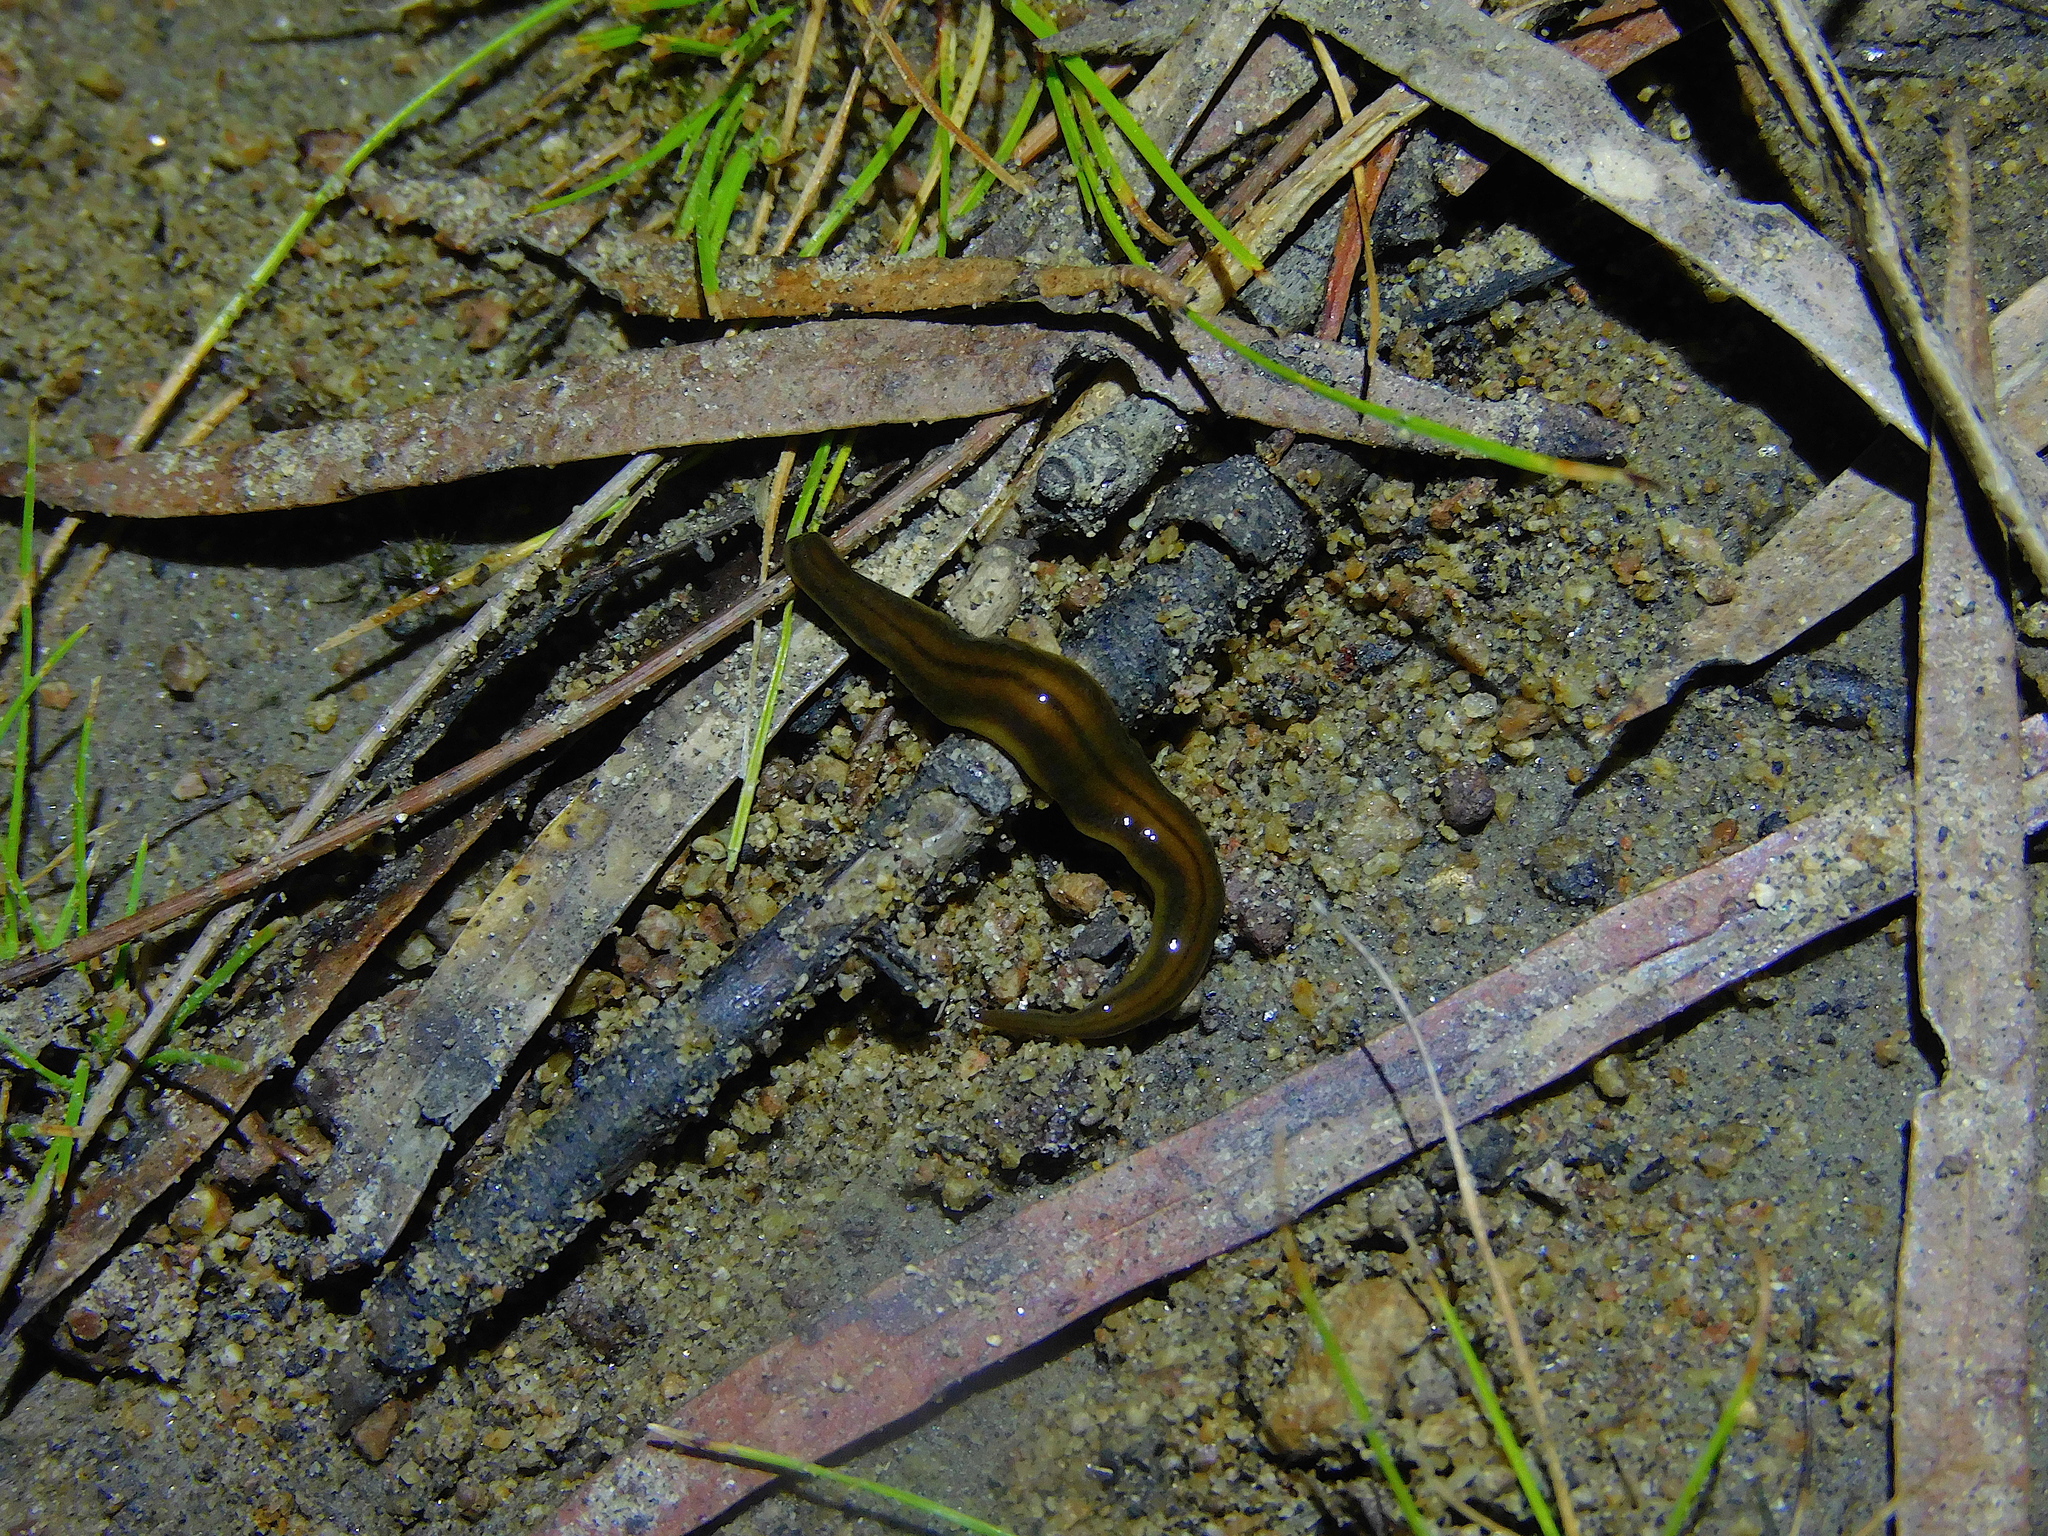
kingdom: Animalia
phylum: Platyhelminthes
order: Tricladida
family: Geoplanidae
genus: Tasmanoplana
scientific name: Tasmanoplana tasmaniana
